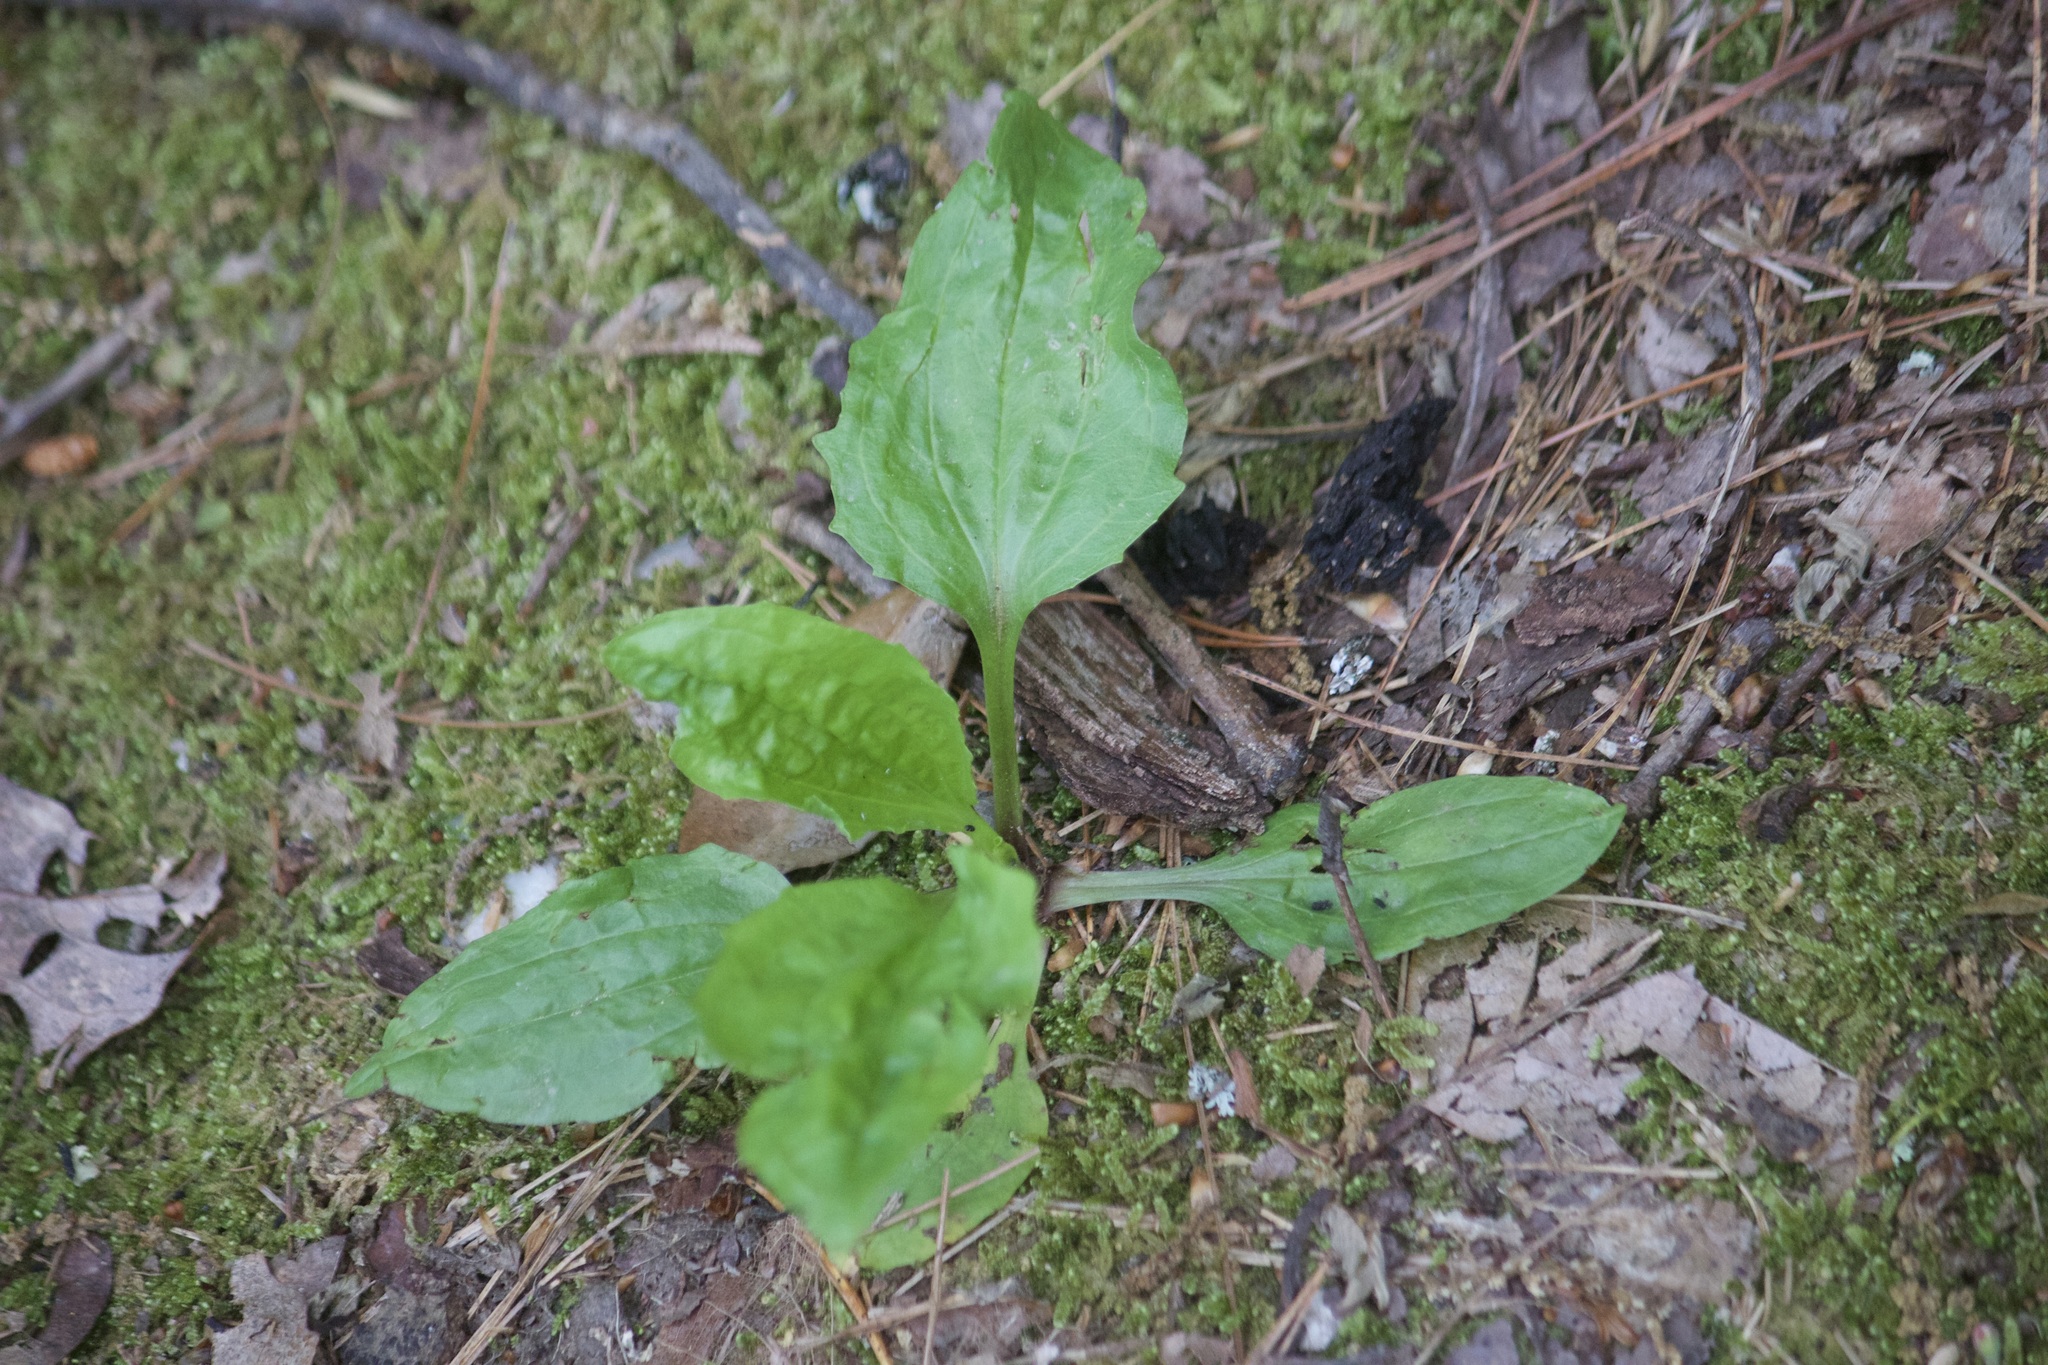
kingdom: Plantae
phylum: Tracheophyta
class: Magnoliopsida
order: Lamiales
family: Plantaginaceae
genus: Plantago
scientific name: Plantago rugelii
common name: American plantain
